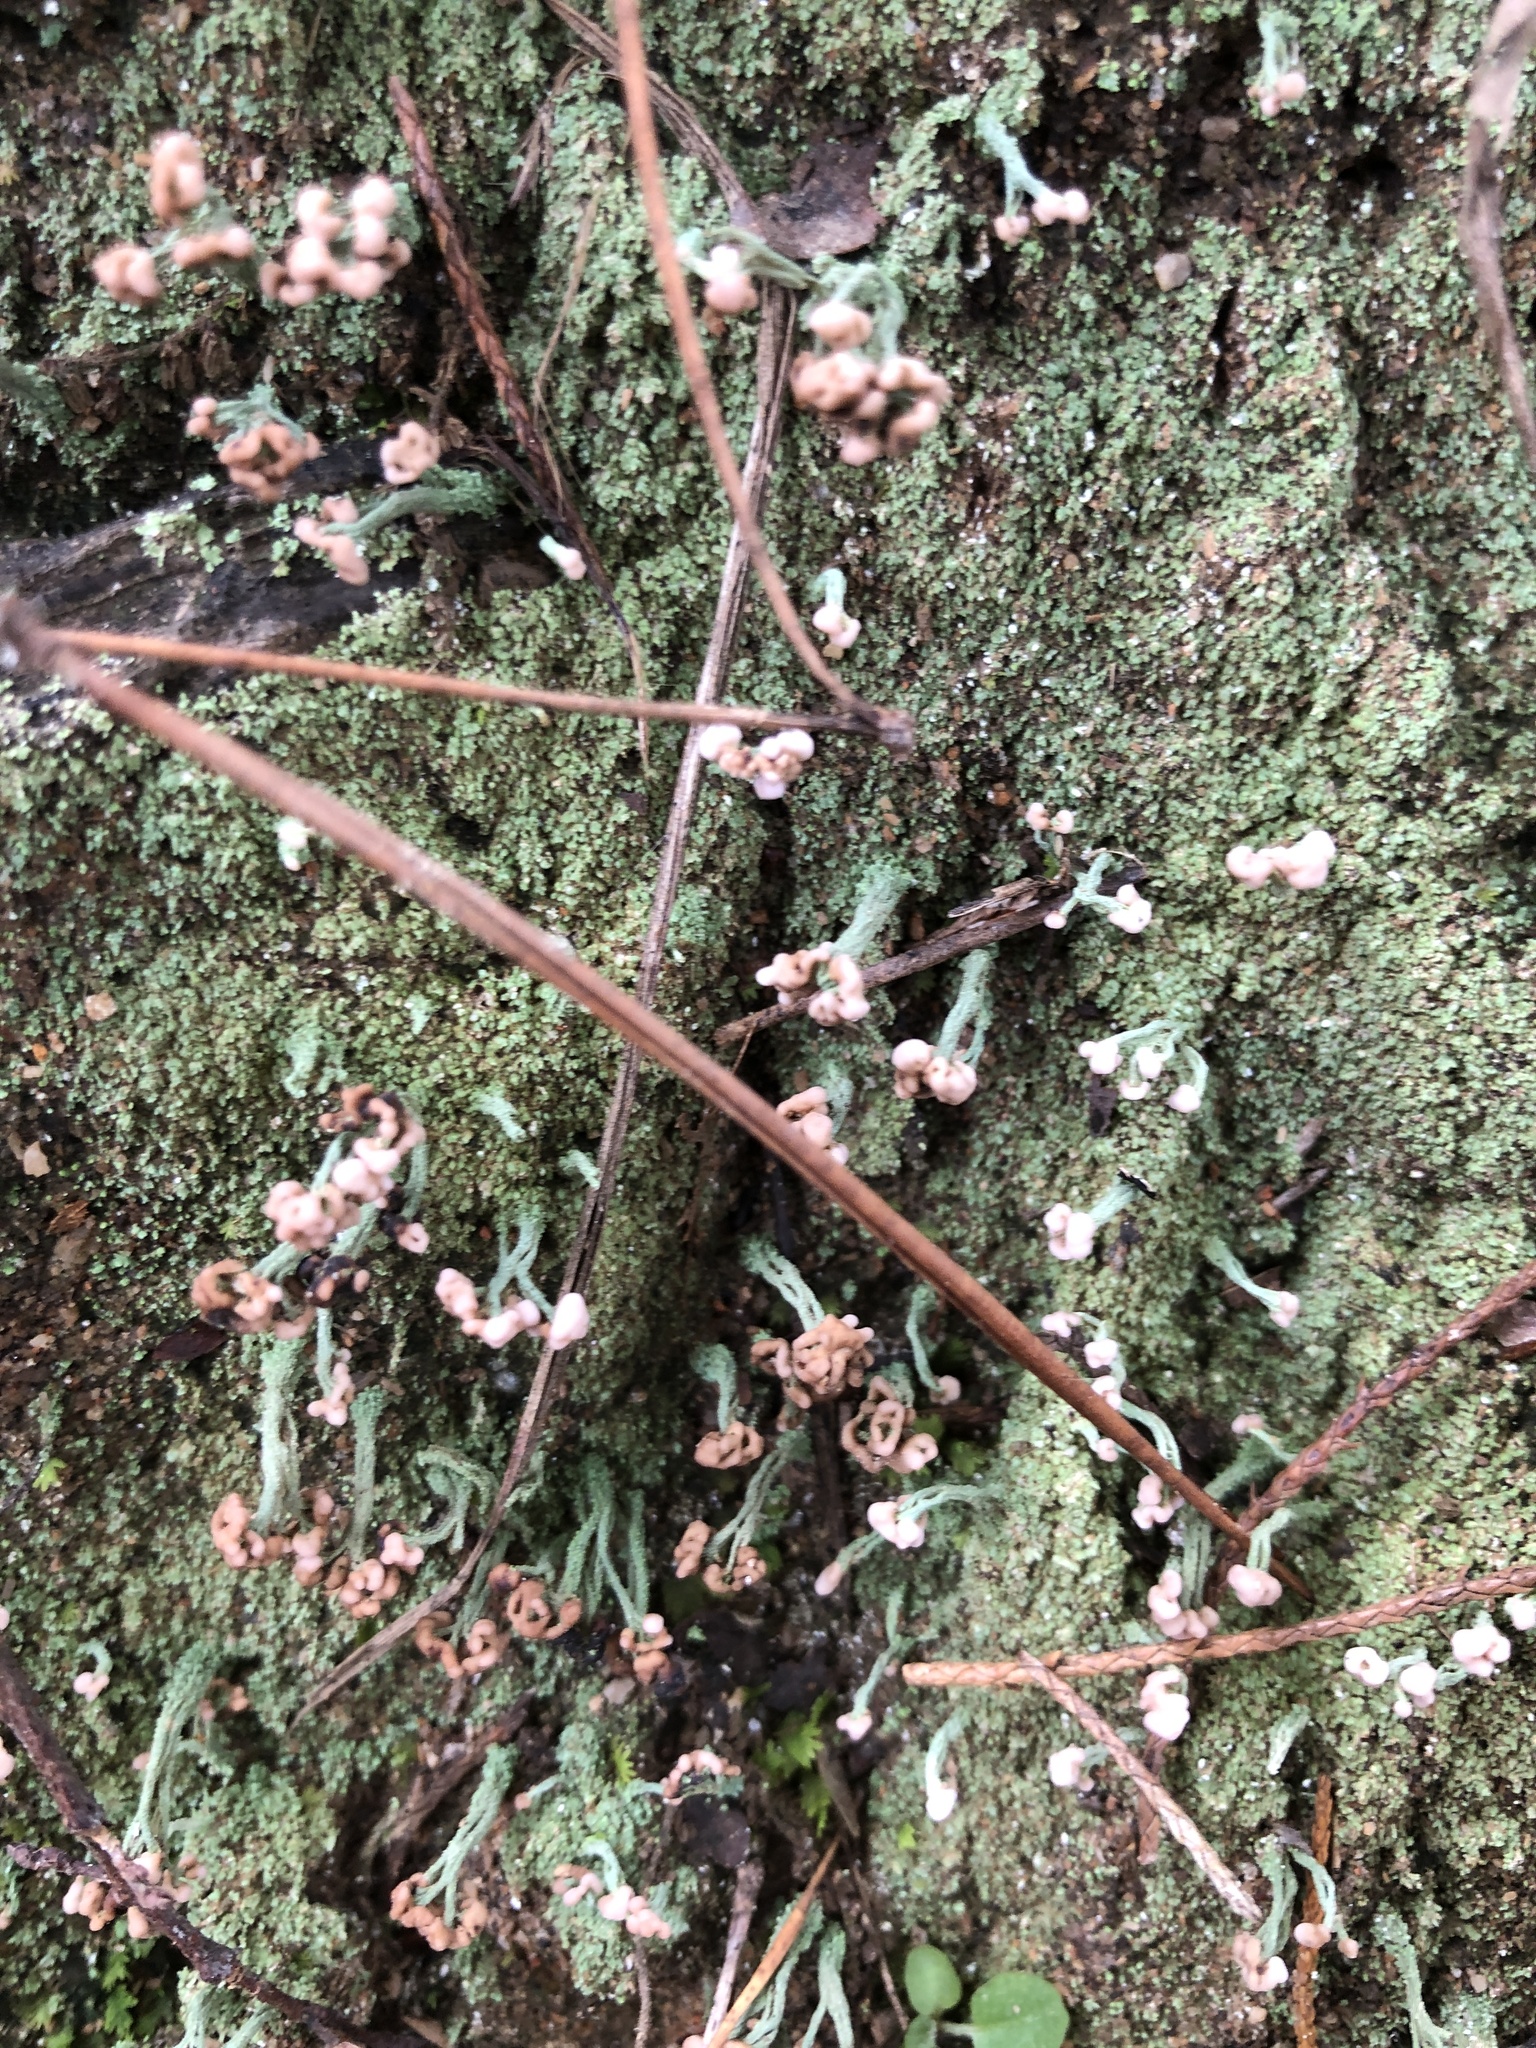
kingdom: Fungi
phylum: Ascomycota
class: Lecanoromycetes
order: Lecanorales
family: Cladoniaceae
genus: Cladonia
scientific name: Cladonia peziziformis
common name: Cup lichen
